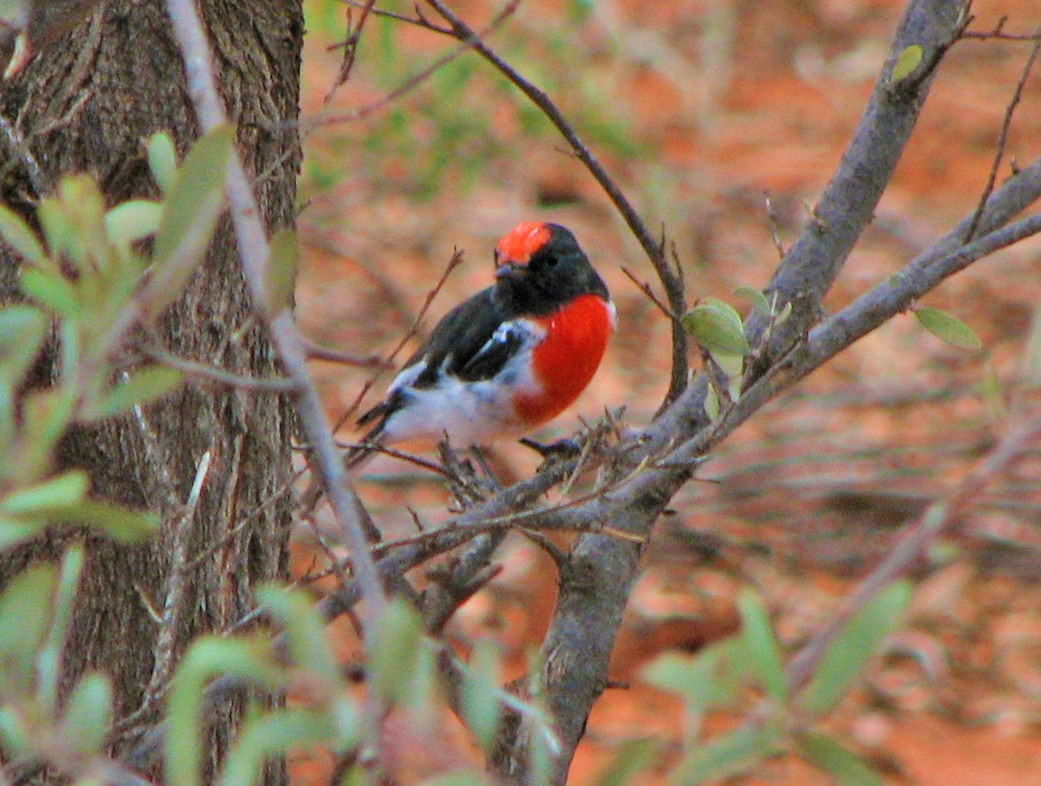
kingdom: Animalia
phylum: Chordata
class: Aves
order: Passeriformes
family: Petroicidae
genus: Petroica
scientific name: Petroica goodenovii
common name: Red-capped robin
